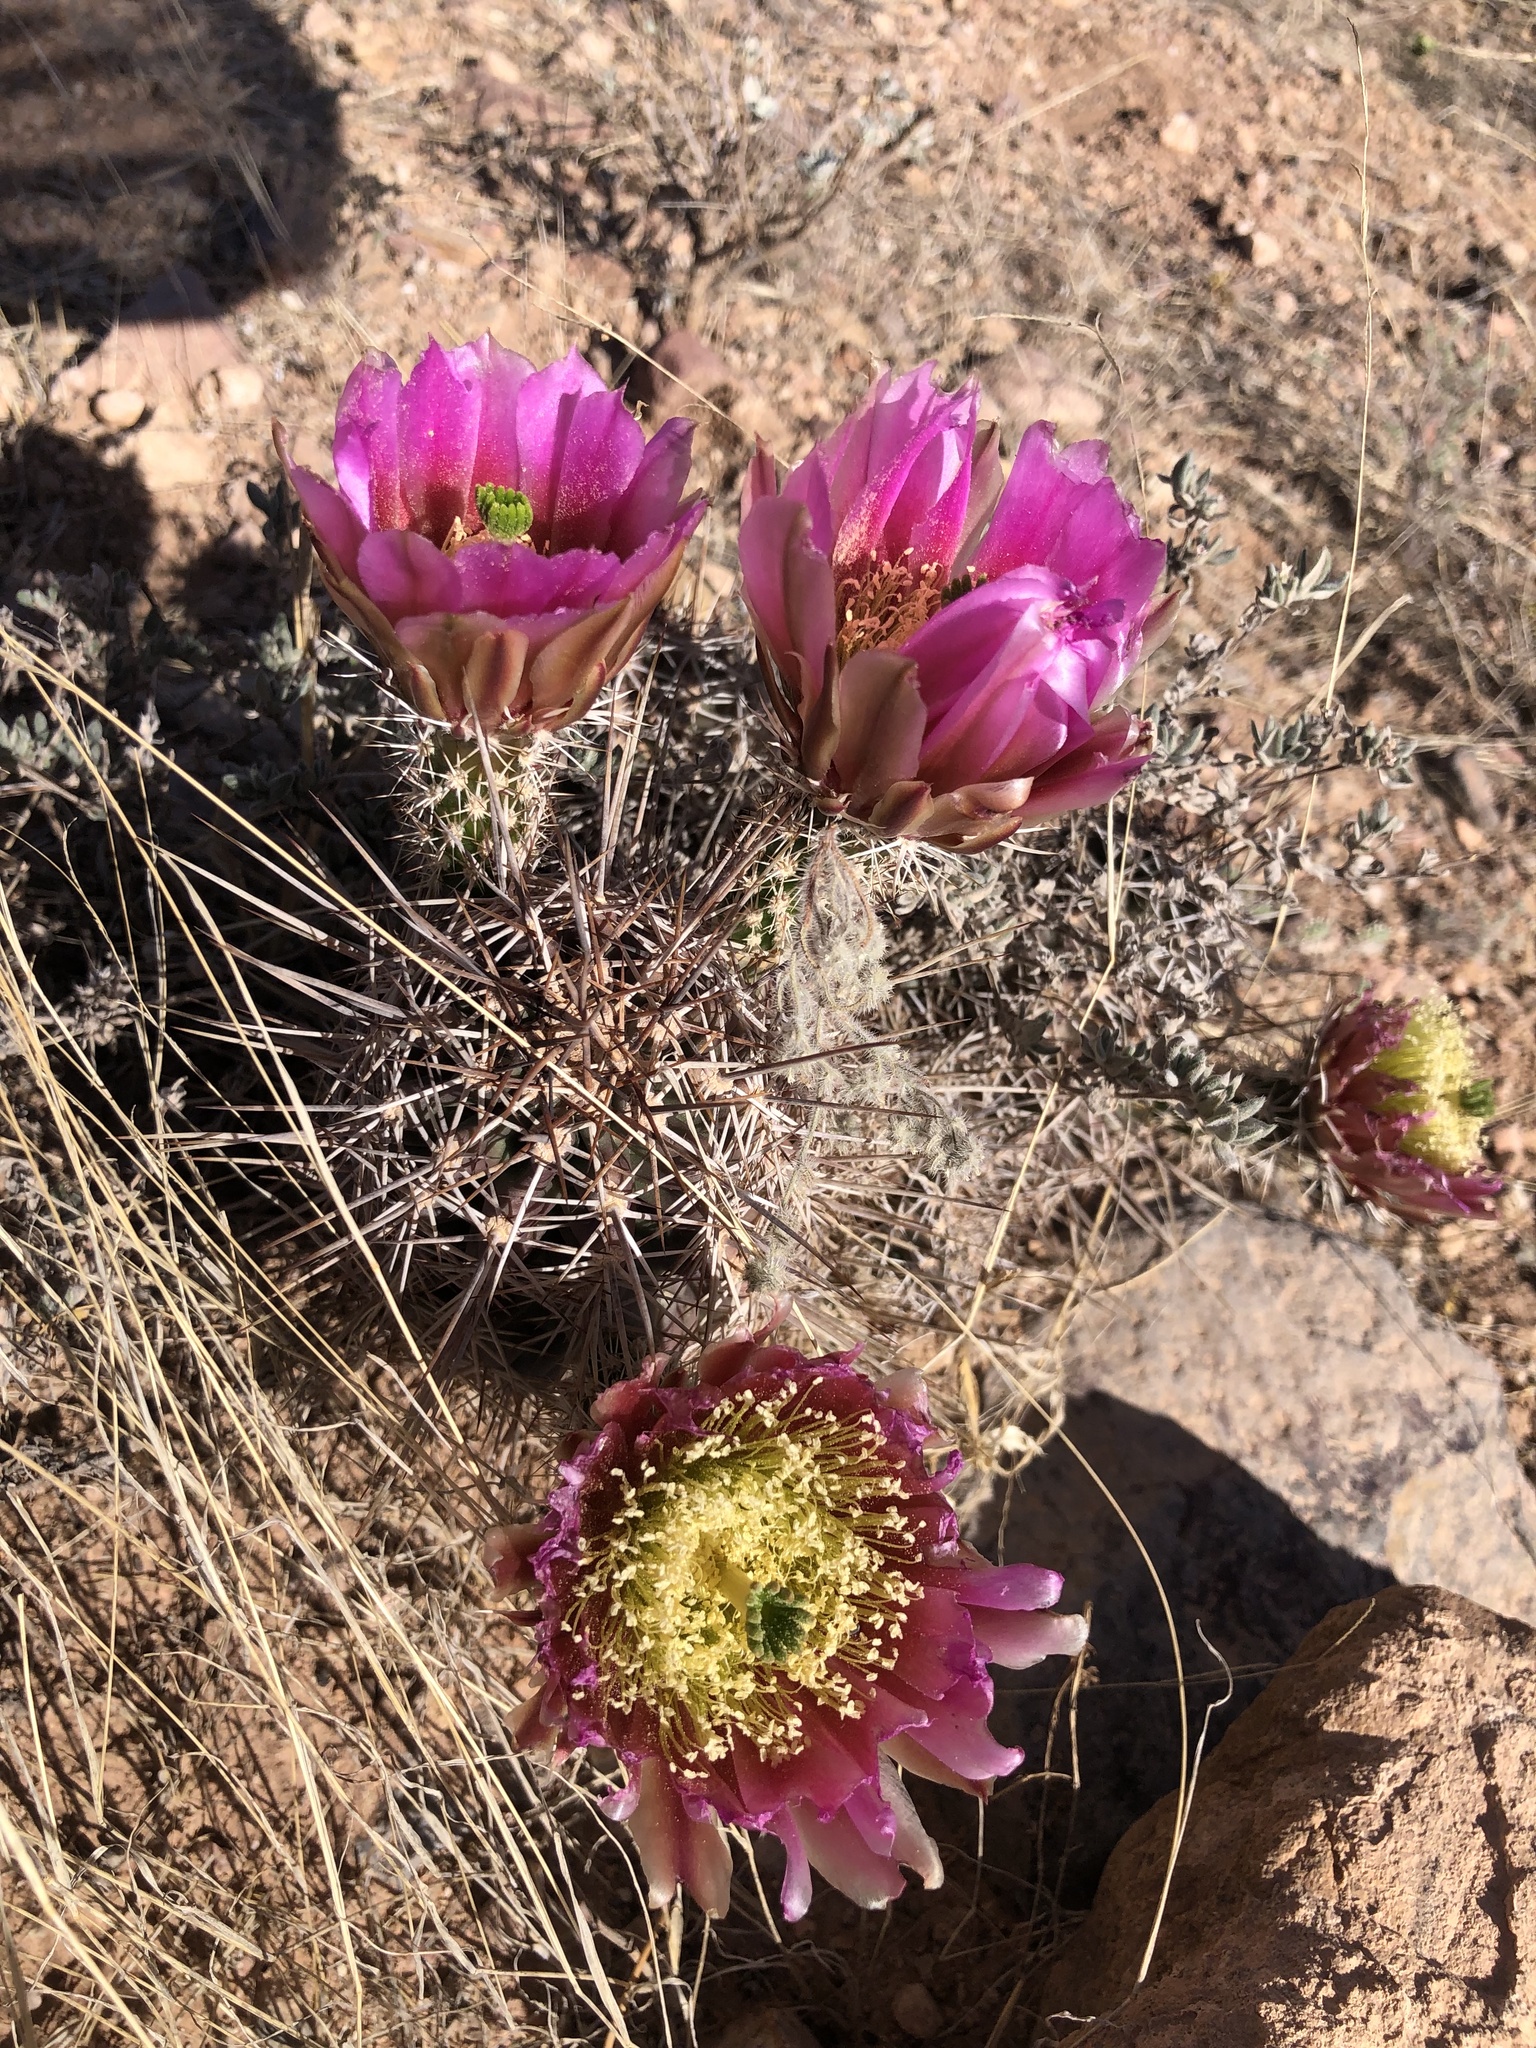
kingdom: Plantae
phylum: Tracheophyta
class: Magnoliopsida
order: Caryophyllales
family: Cactaceae
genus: Echinocereus
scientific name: Echinocereus fendleri
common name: Fendler's hedgehog cactus
